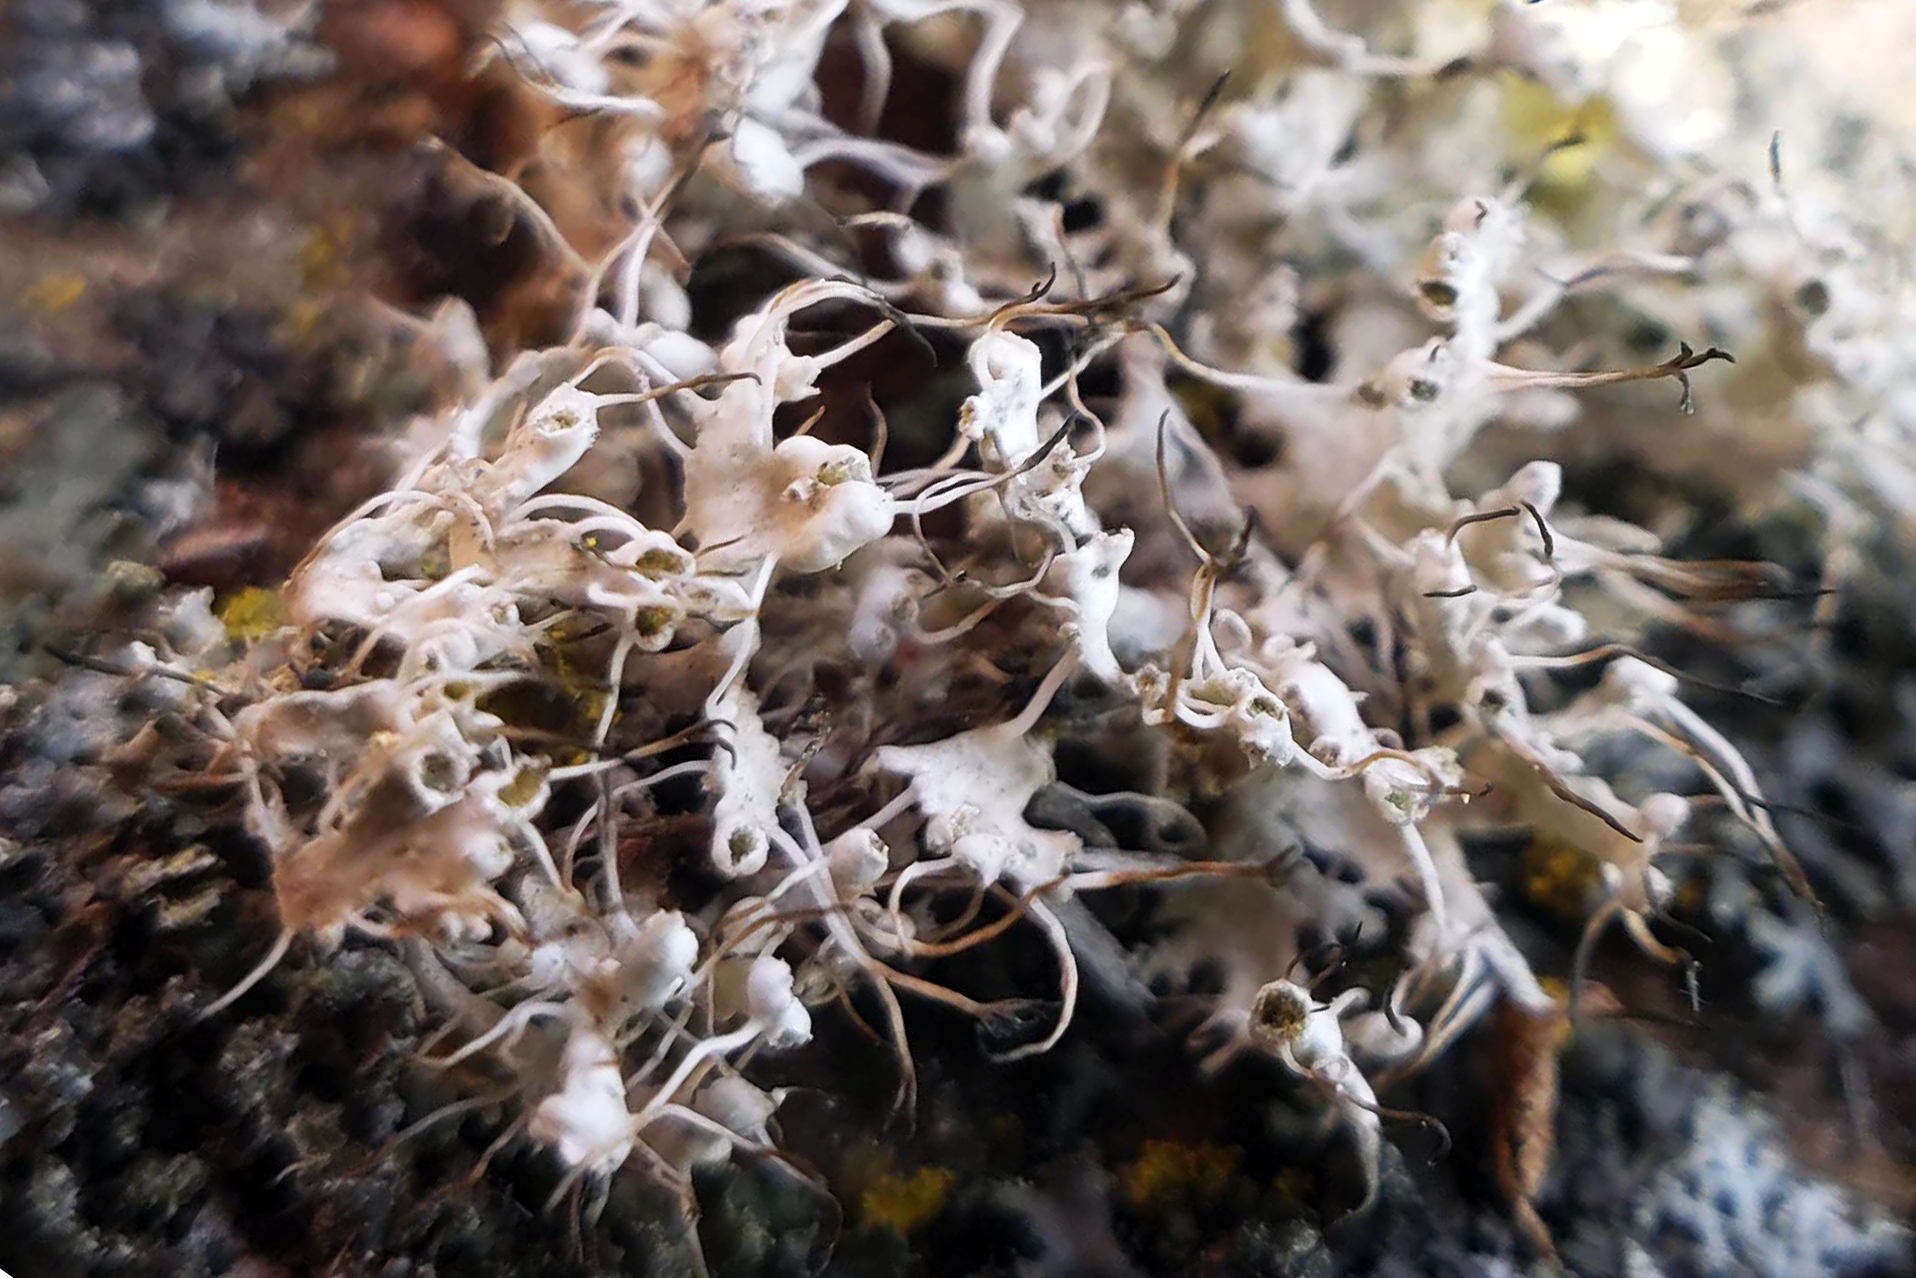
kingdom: Fungi
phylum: Ascomycota
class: Lecanoromycetes
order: Caliciales
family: Physciaceae
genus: Physcia
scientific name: Physcia adscendens
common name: Hooded rosette lichen
